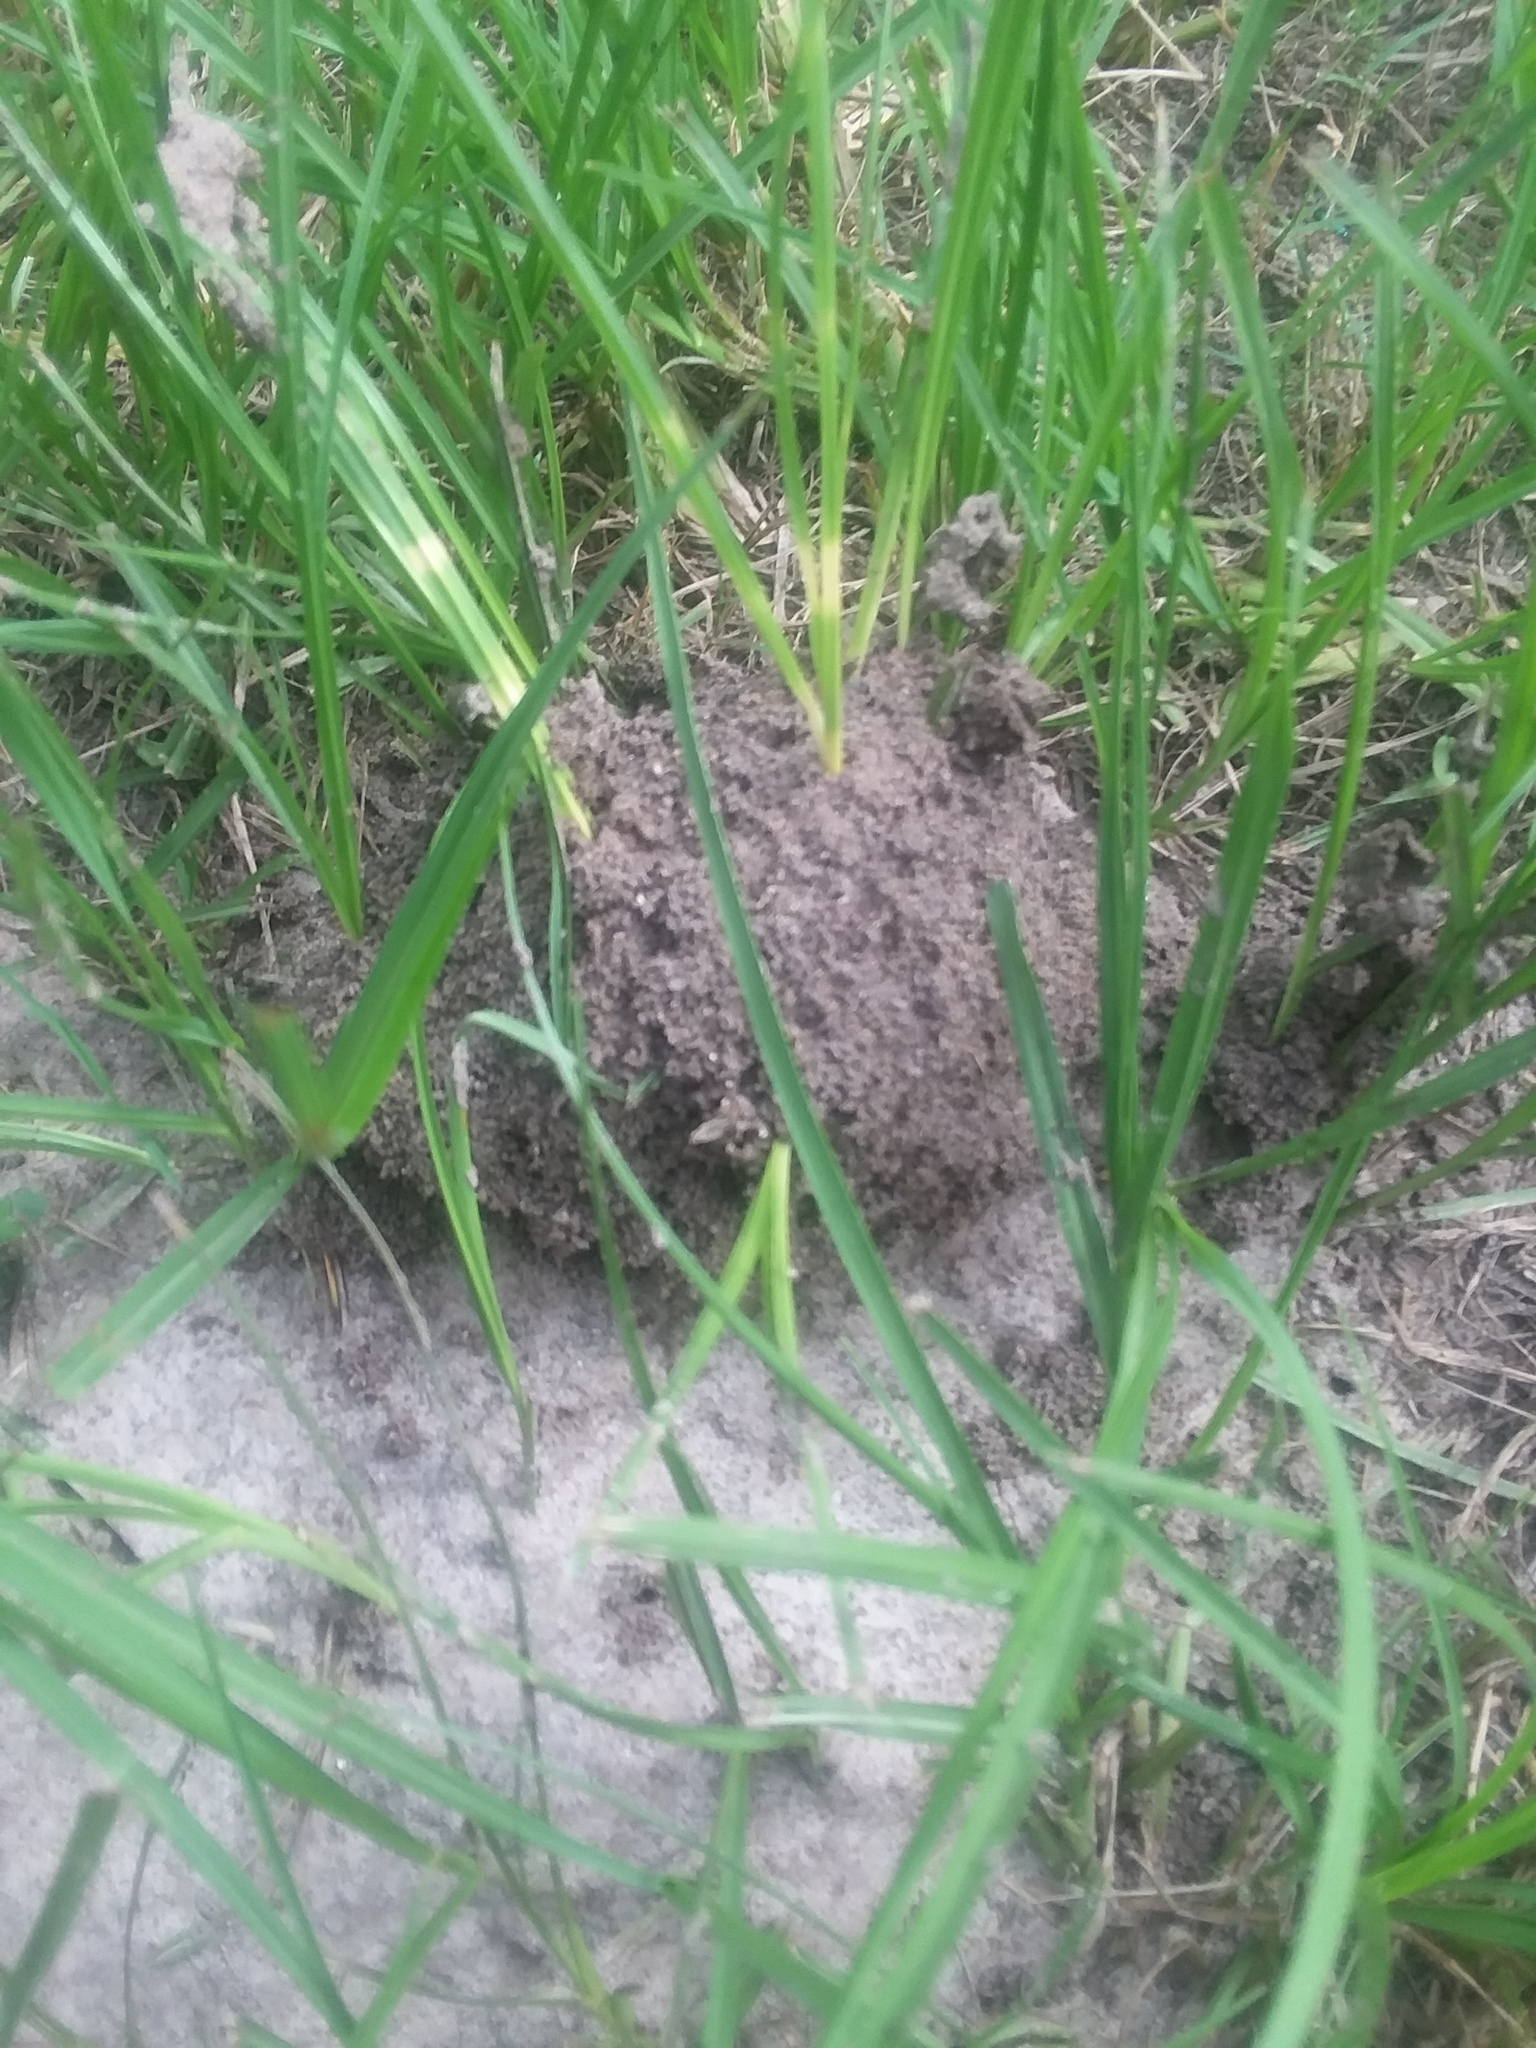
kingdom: Animalia
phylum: Arthropoda
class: Insecta
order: Hymenoptera
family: Formicidae
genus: Solenopsis
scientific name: Solenopsis invicta
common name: Red imported fire ant
